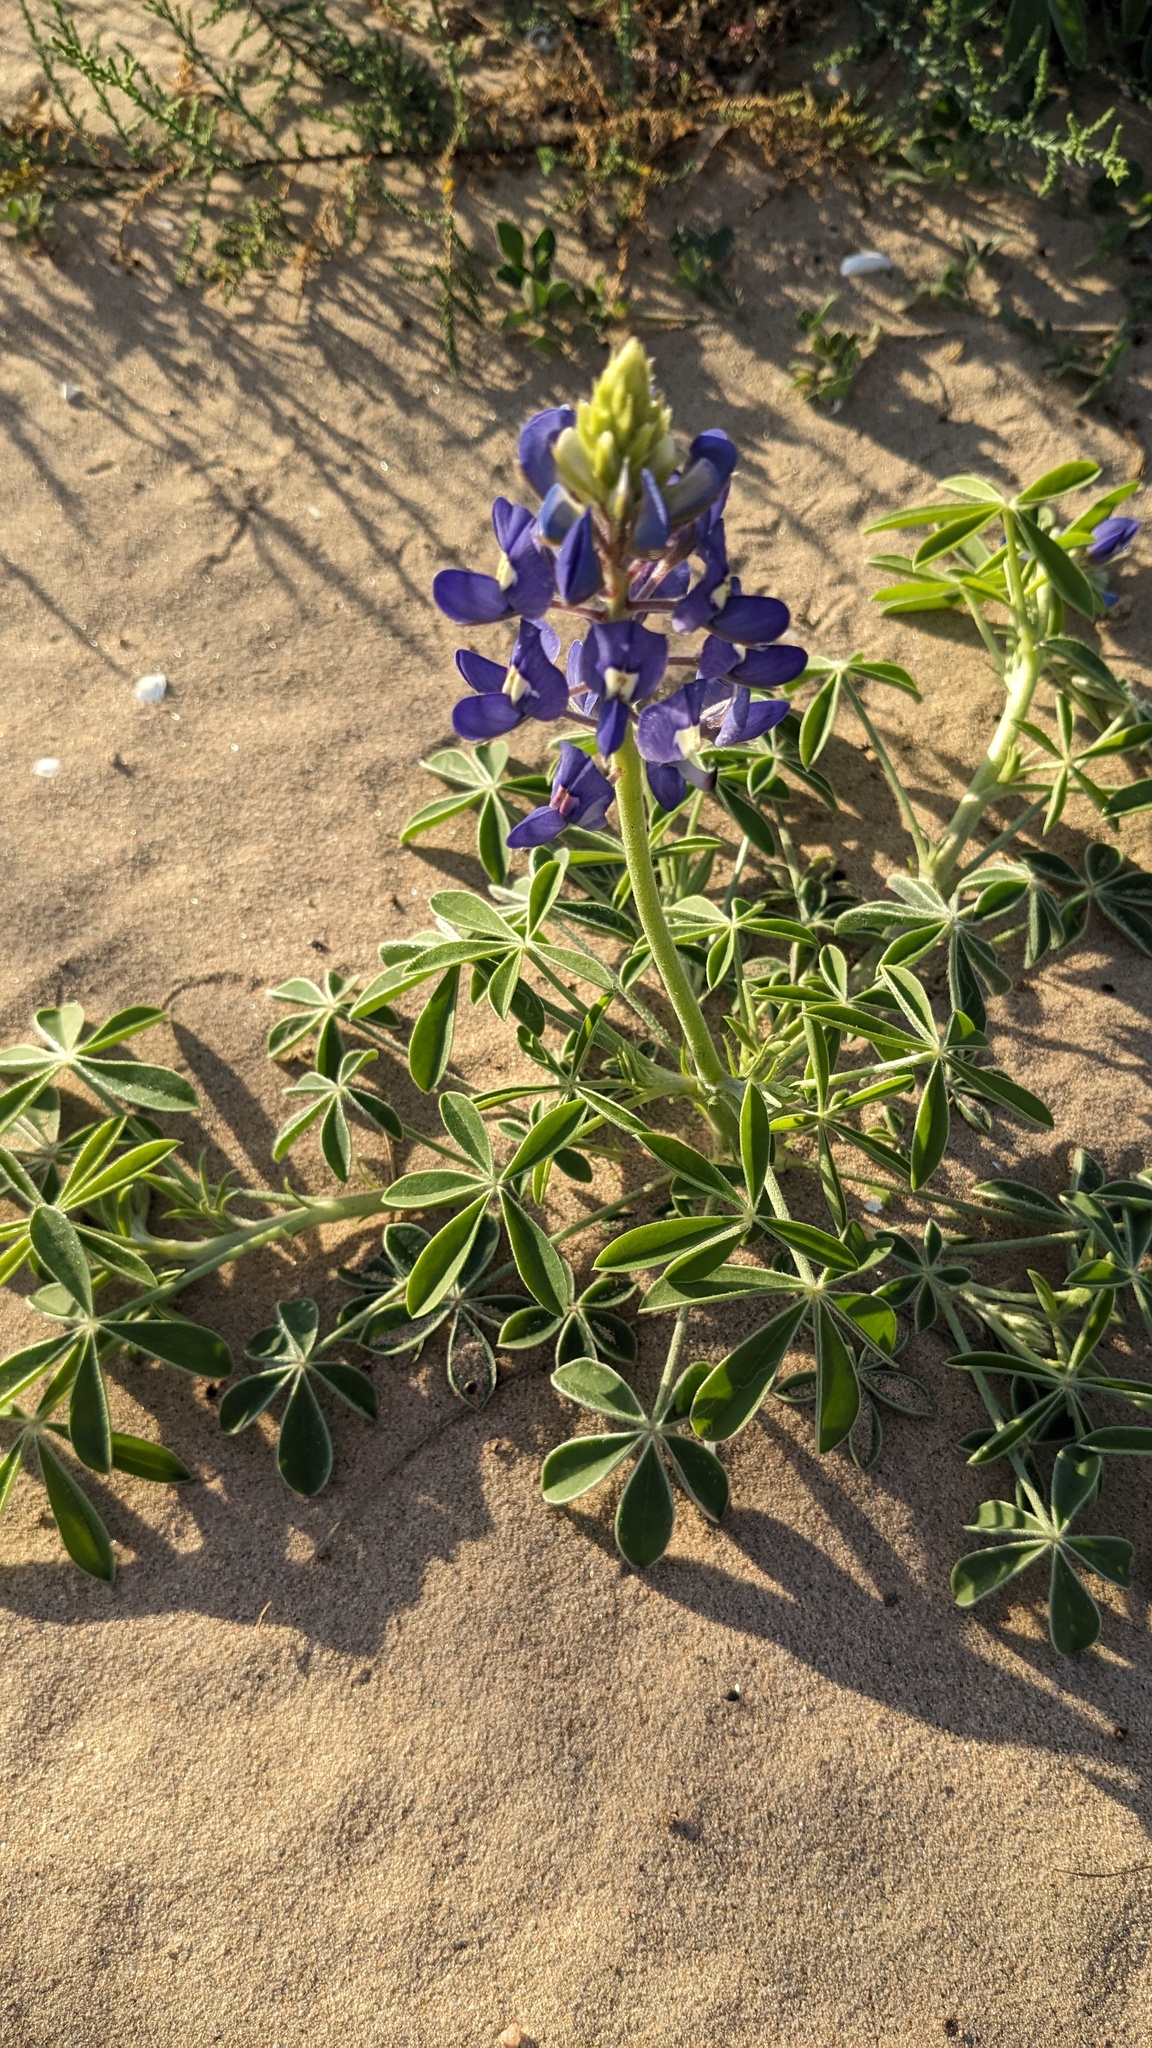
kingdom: Plantae
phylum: Tracheophyta
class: Magnoliopsida
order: Fabales
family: Fabaceae
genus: Lupinus
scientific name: Lupinus texensis
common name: Texas bluebonnet
